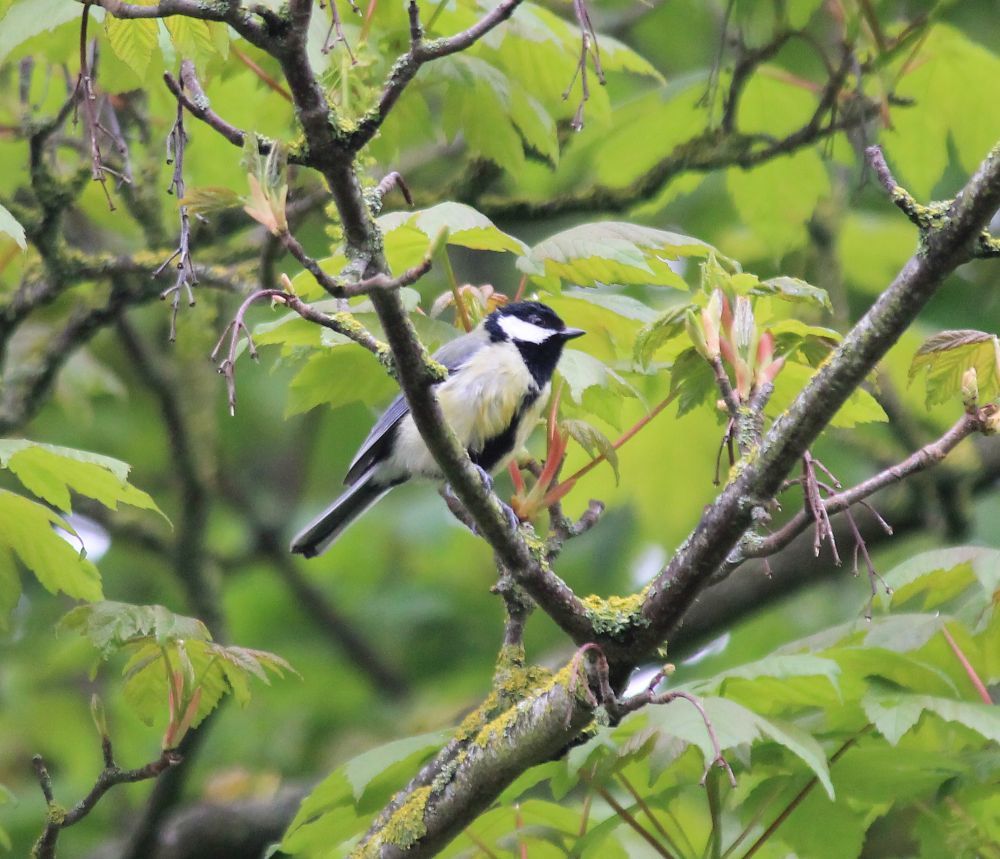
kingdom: Animalia
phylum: Chordata
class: Aves
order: Passeriformes
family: Paridae
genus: Parus
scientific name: Parus major
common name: Great tit
